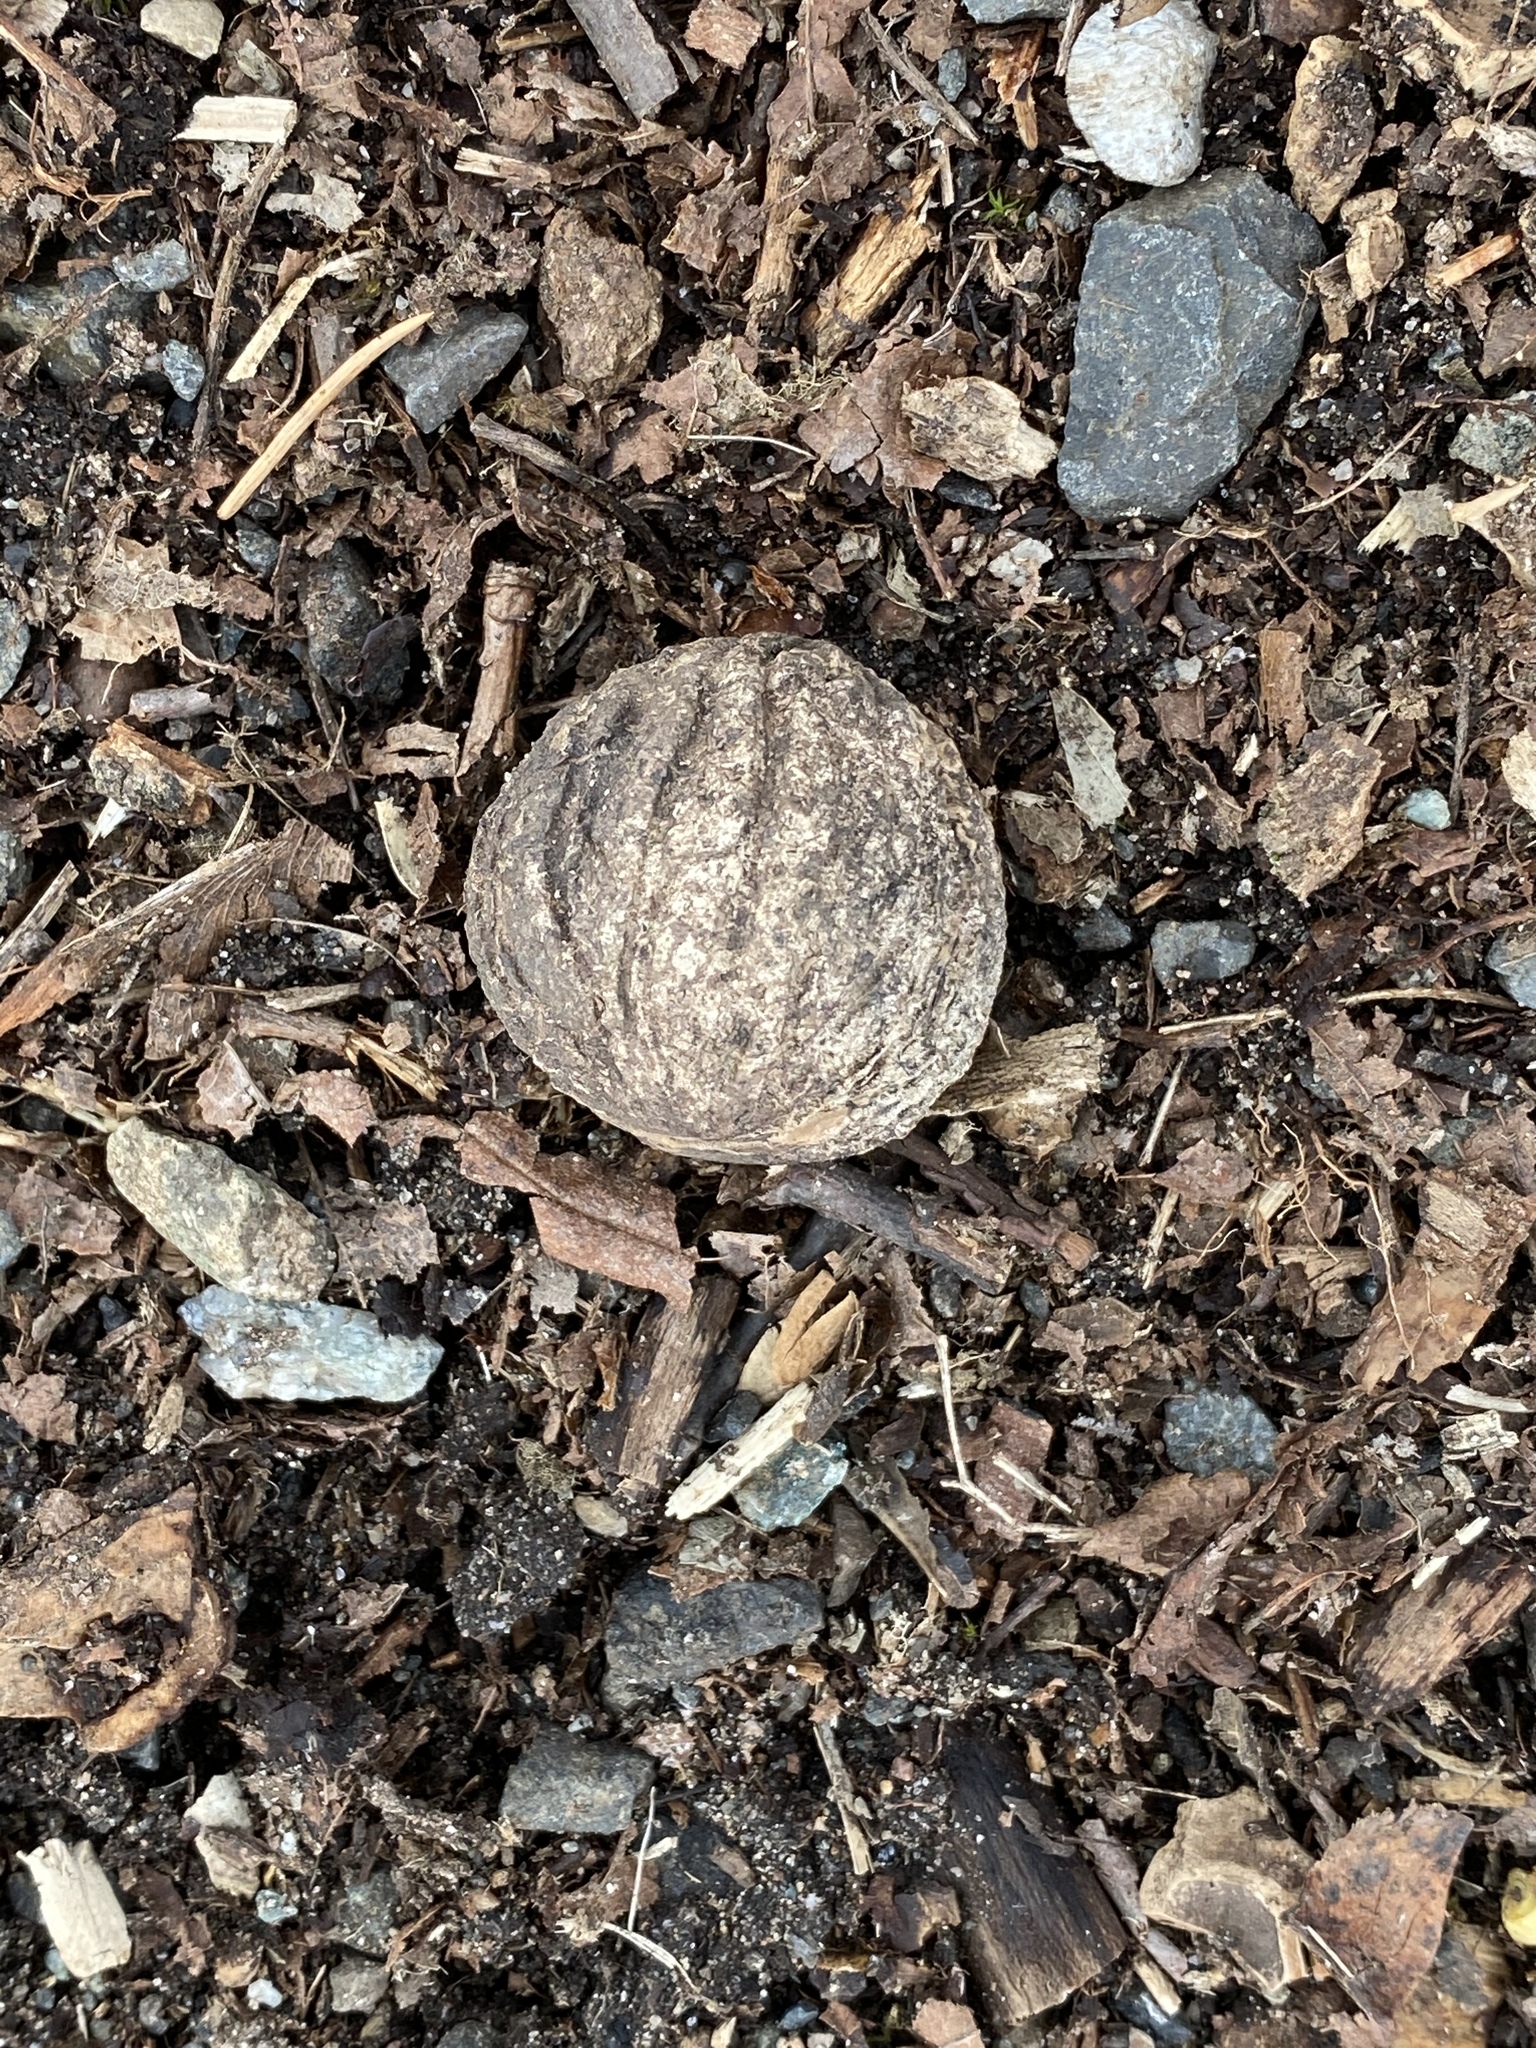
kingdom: Plantae
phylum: Tracheophyta
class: Magnoliopsida
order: Fagales
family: Juglandaceae
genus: Juglans
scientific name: Juglans nigra
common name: Black walnut
